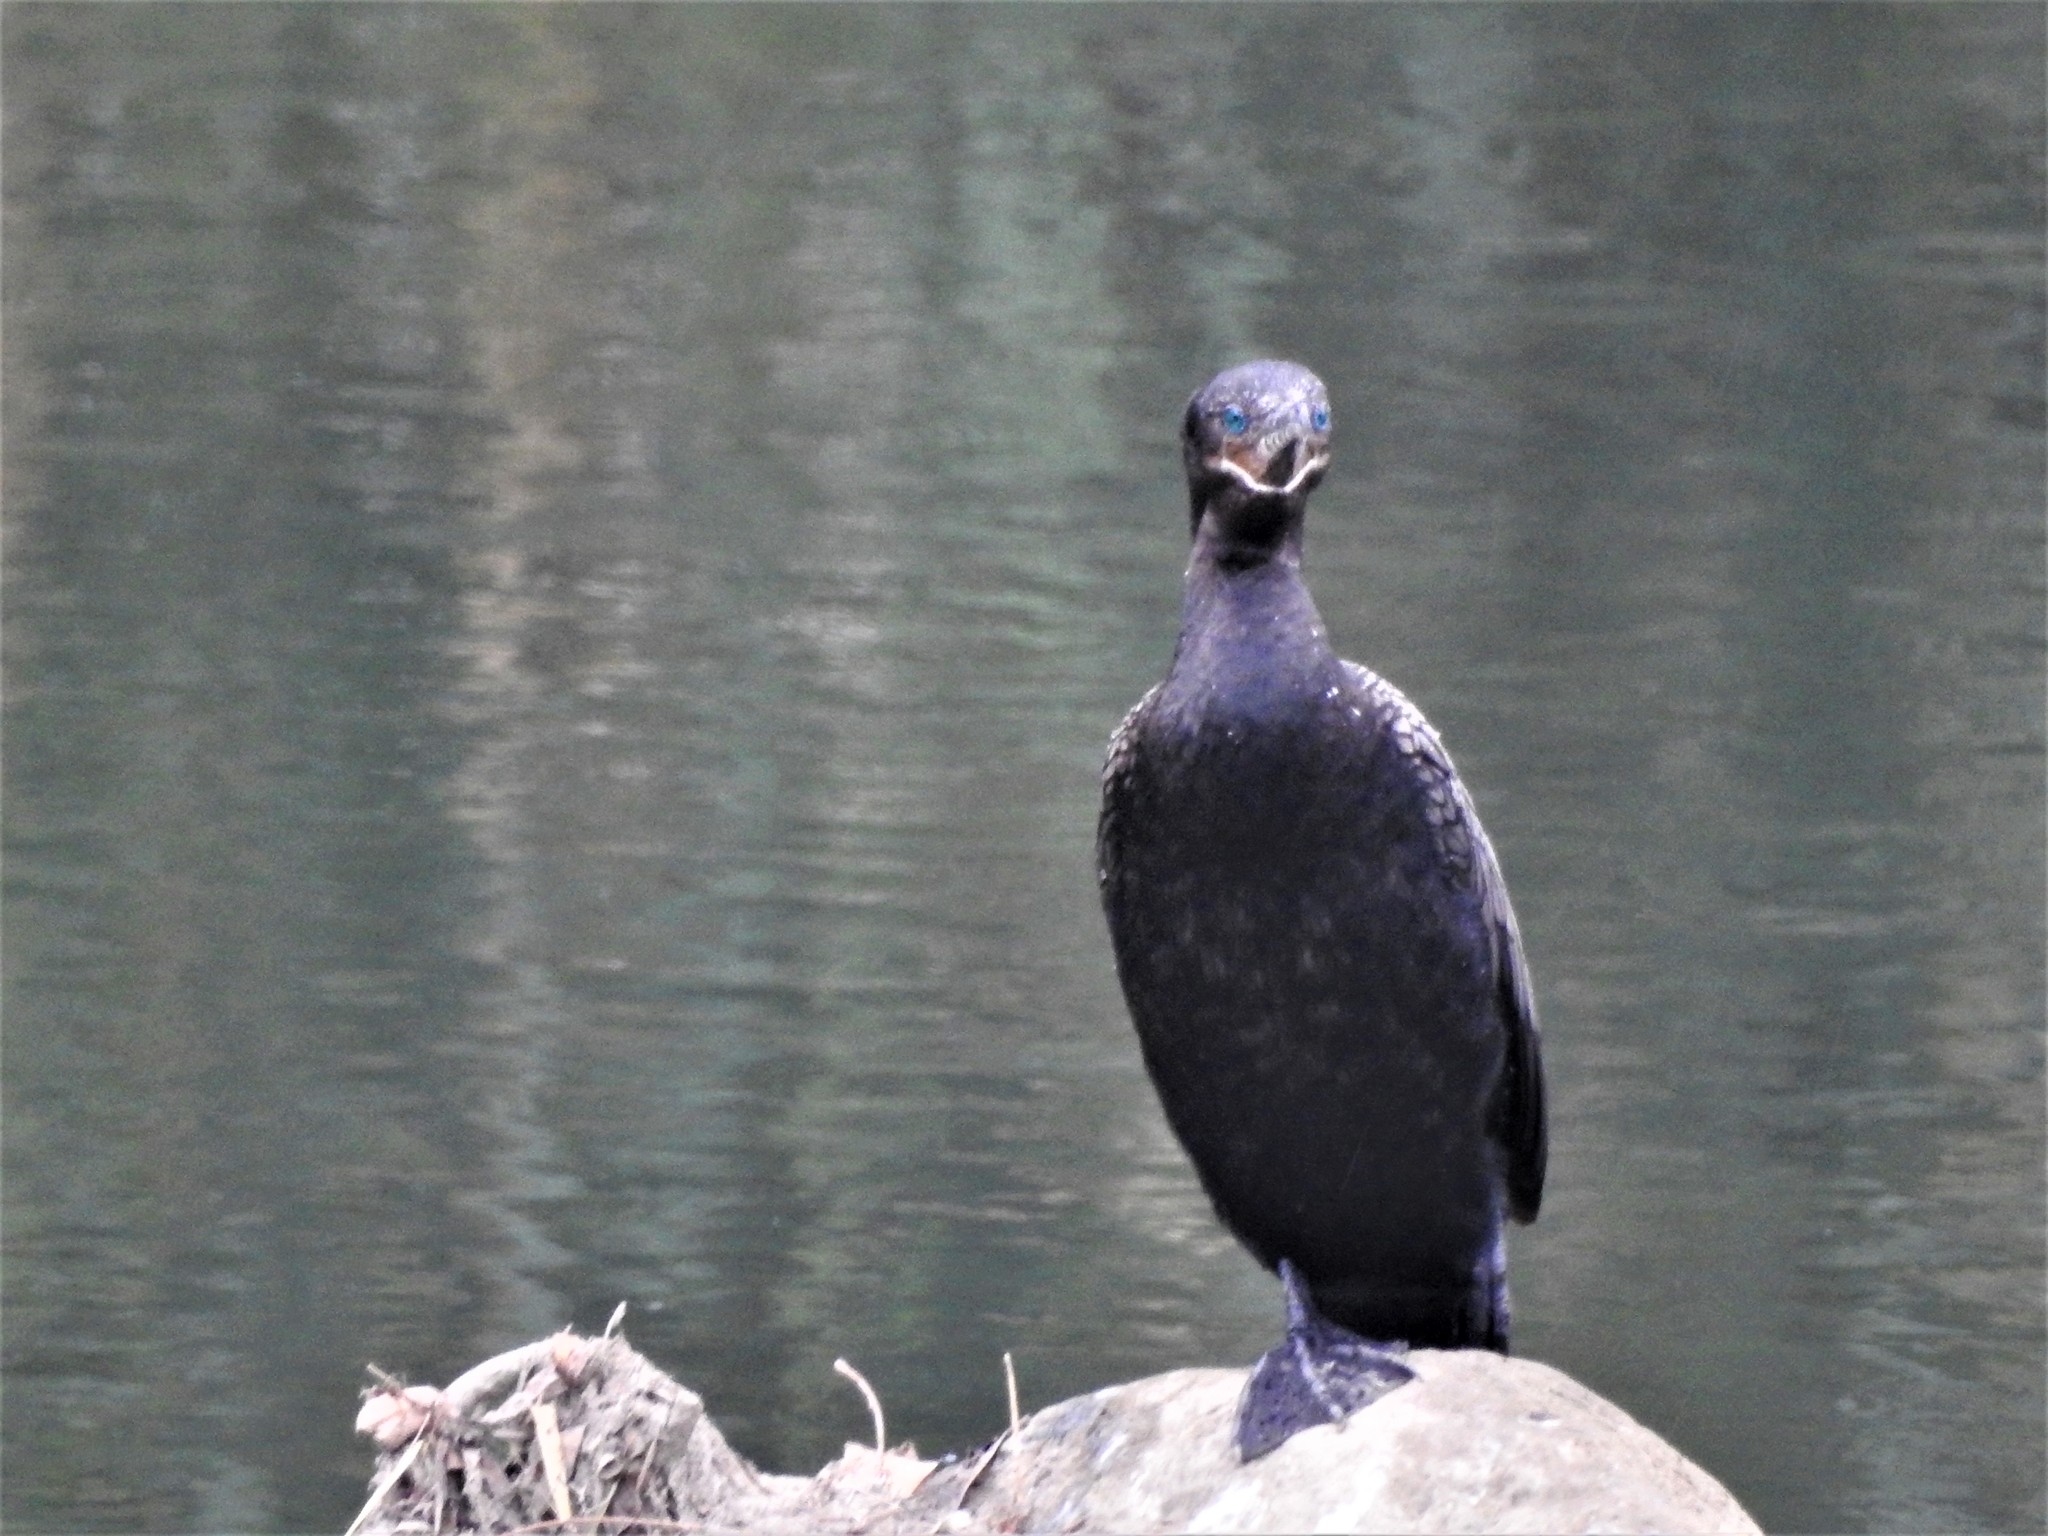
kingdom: Animalia
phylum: Chordata
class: Aves
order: Suliformes
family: Phalacrocoracidae
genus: Phalacrocorax
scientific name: Phalacrocorax brasilianus
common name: Neotropic cormorant
